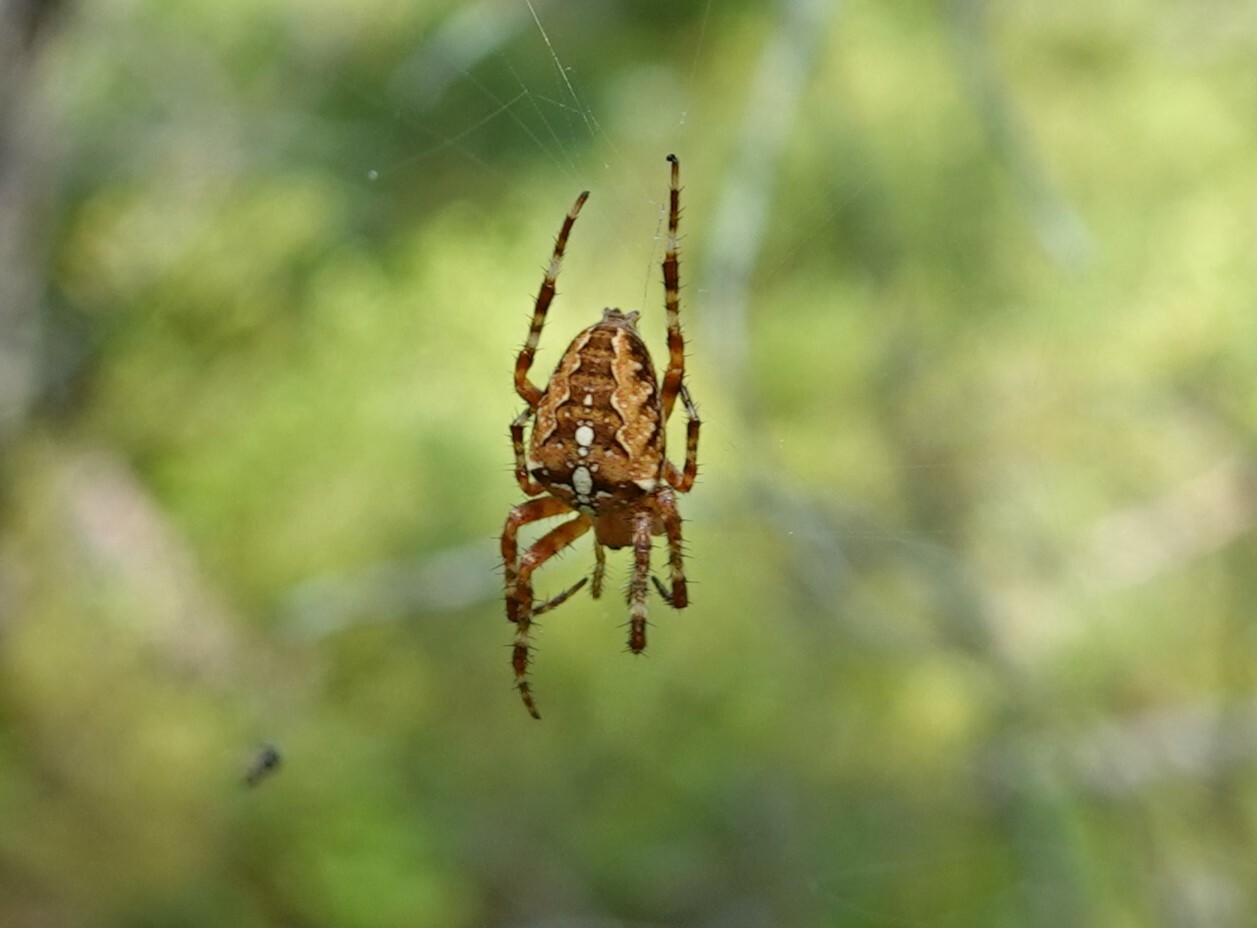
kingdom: Animalia
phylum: Arthropoda
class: Arachnida
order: Araneae
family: Araneidae
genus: Araneus
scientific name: Araneus diadematus
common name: Cross orbweaver
